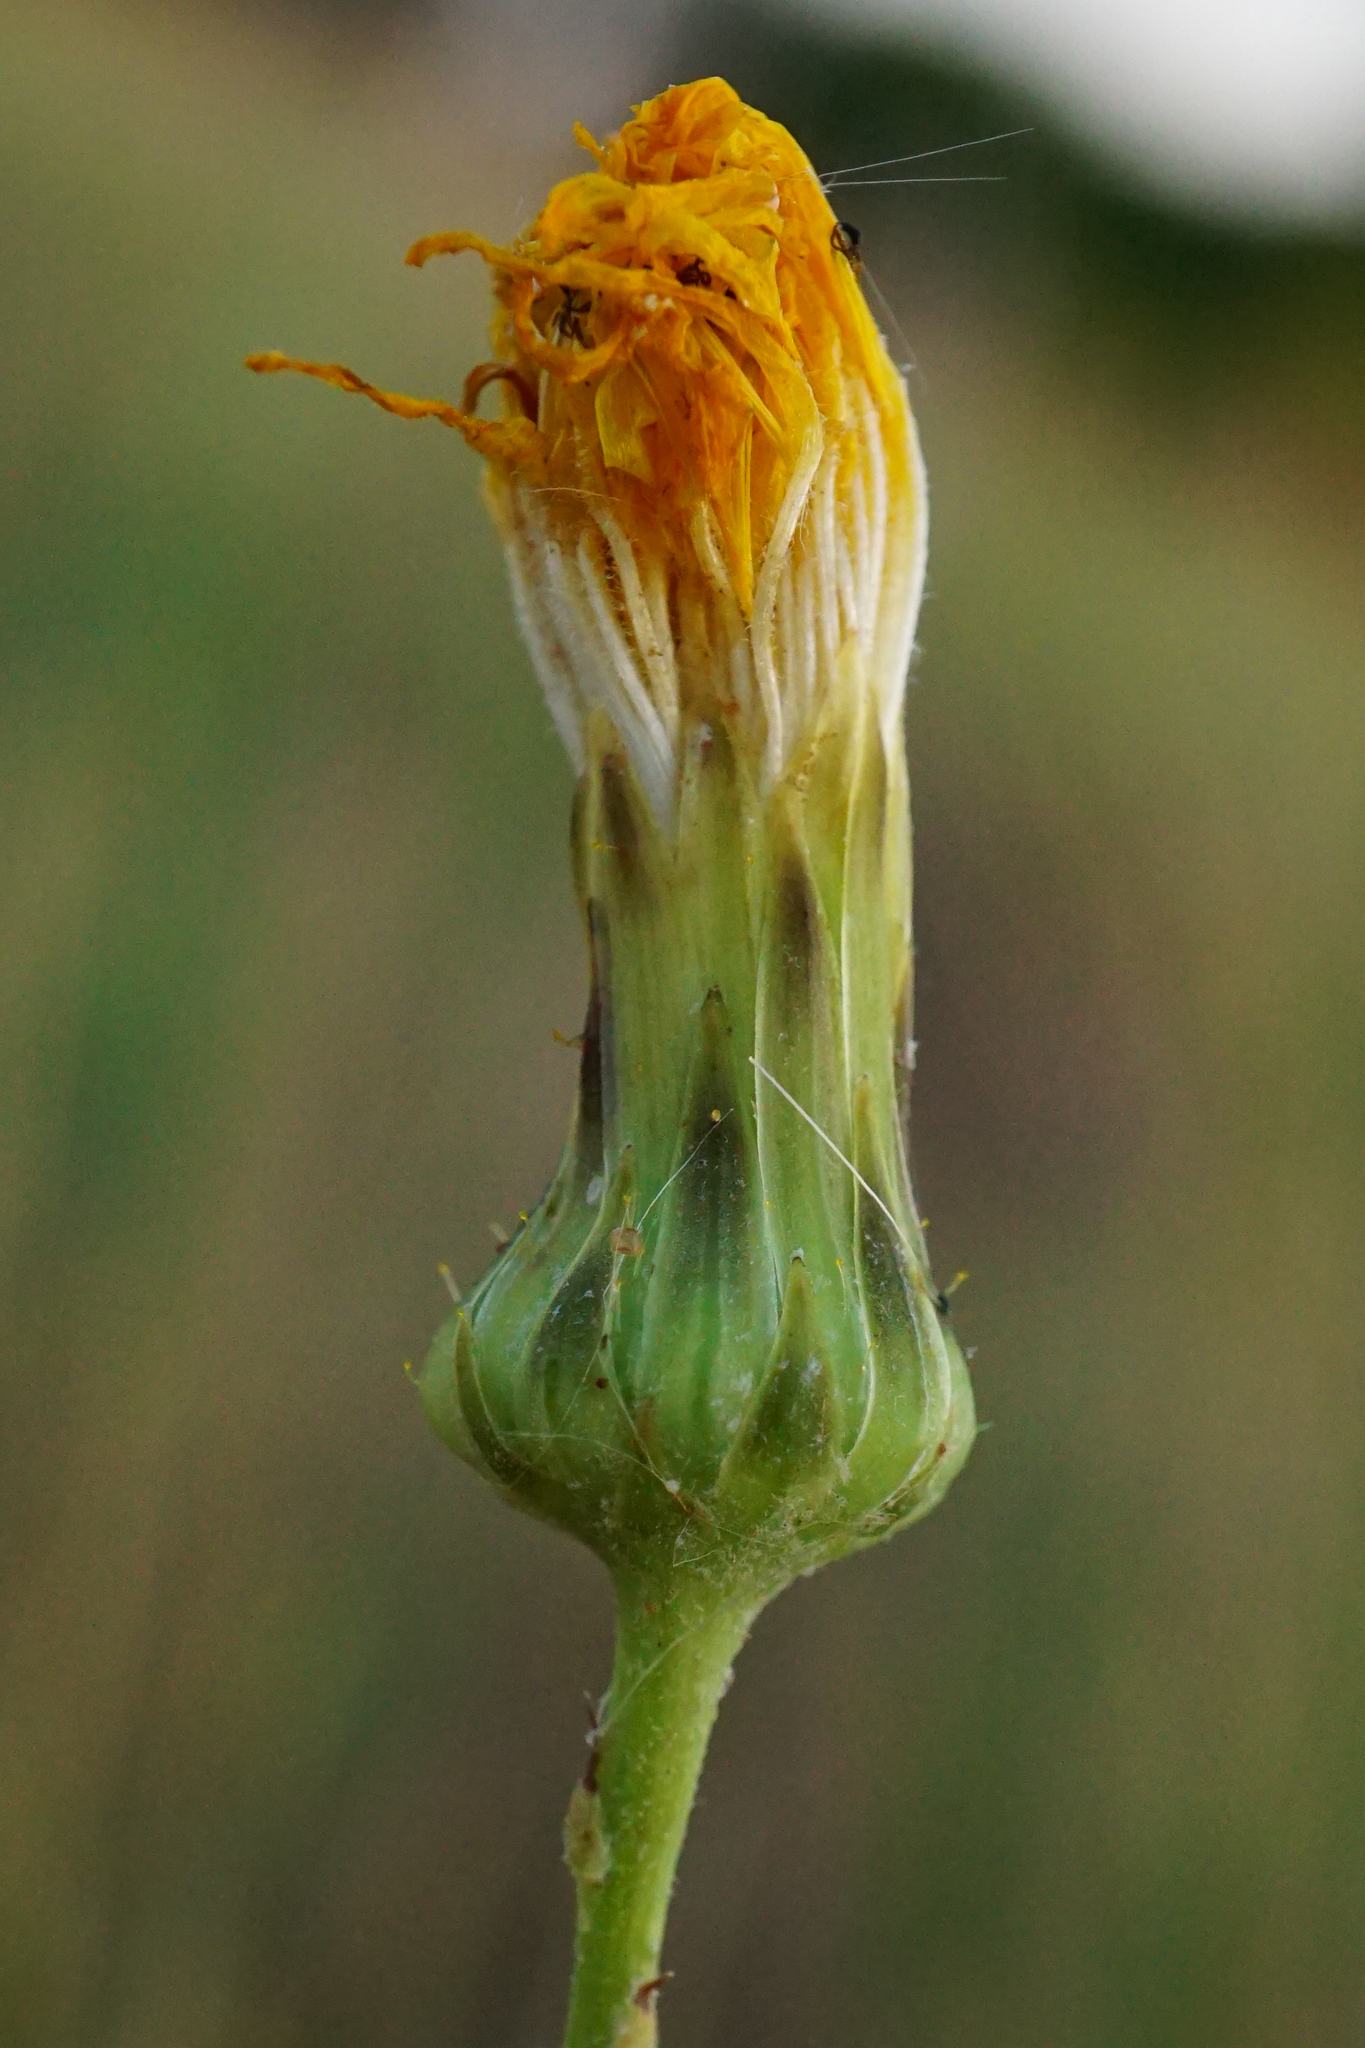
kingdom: Plantae
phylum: Tracheophyta
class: Magnoliopsida
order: Asterales
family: Asteraceae
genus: Sonchus
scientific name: Sonchus arvensis
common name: Perennial sow-thistle
